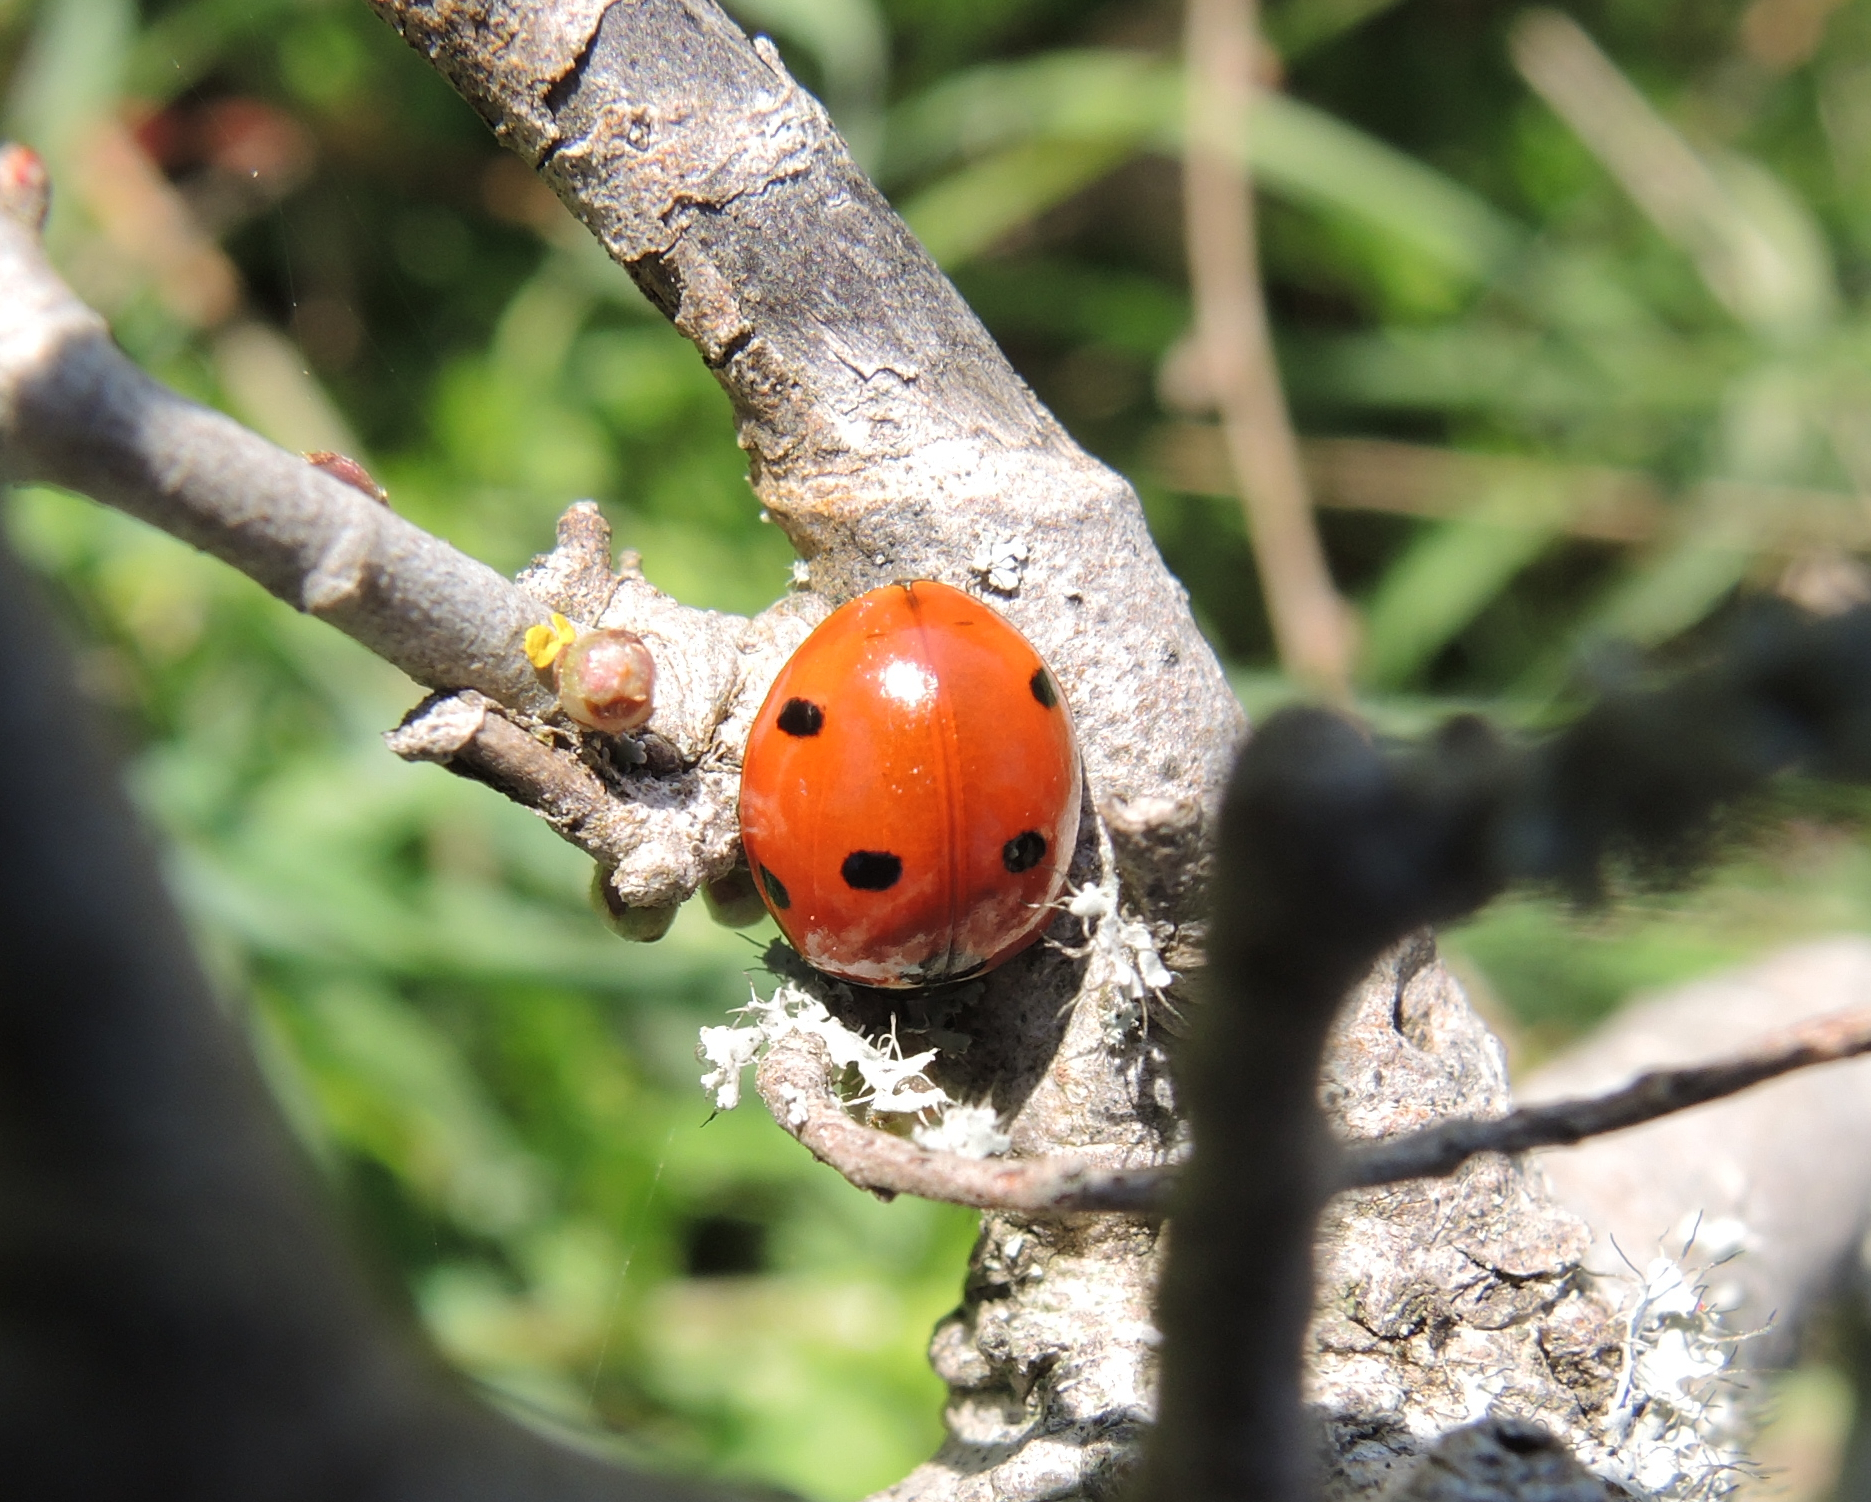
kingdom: Animalia
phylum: Arthropoda
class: Insecta
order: Coleoptera
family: Coccinellidae
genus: Coccinella
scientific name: Coccinella septempunctata
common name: Sevenspotted lady beetle
